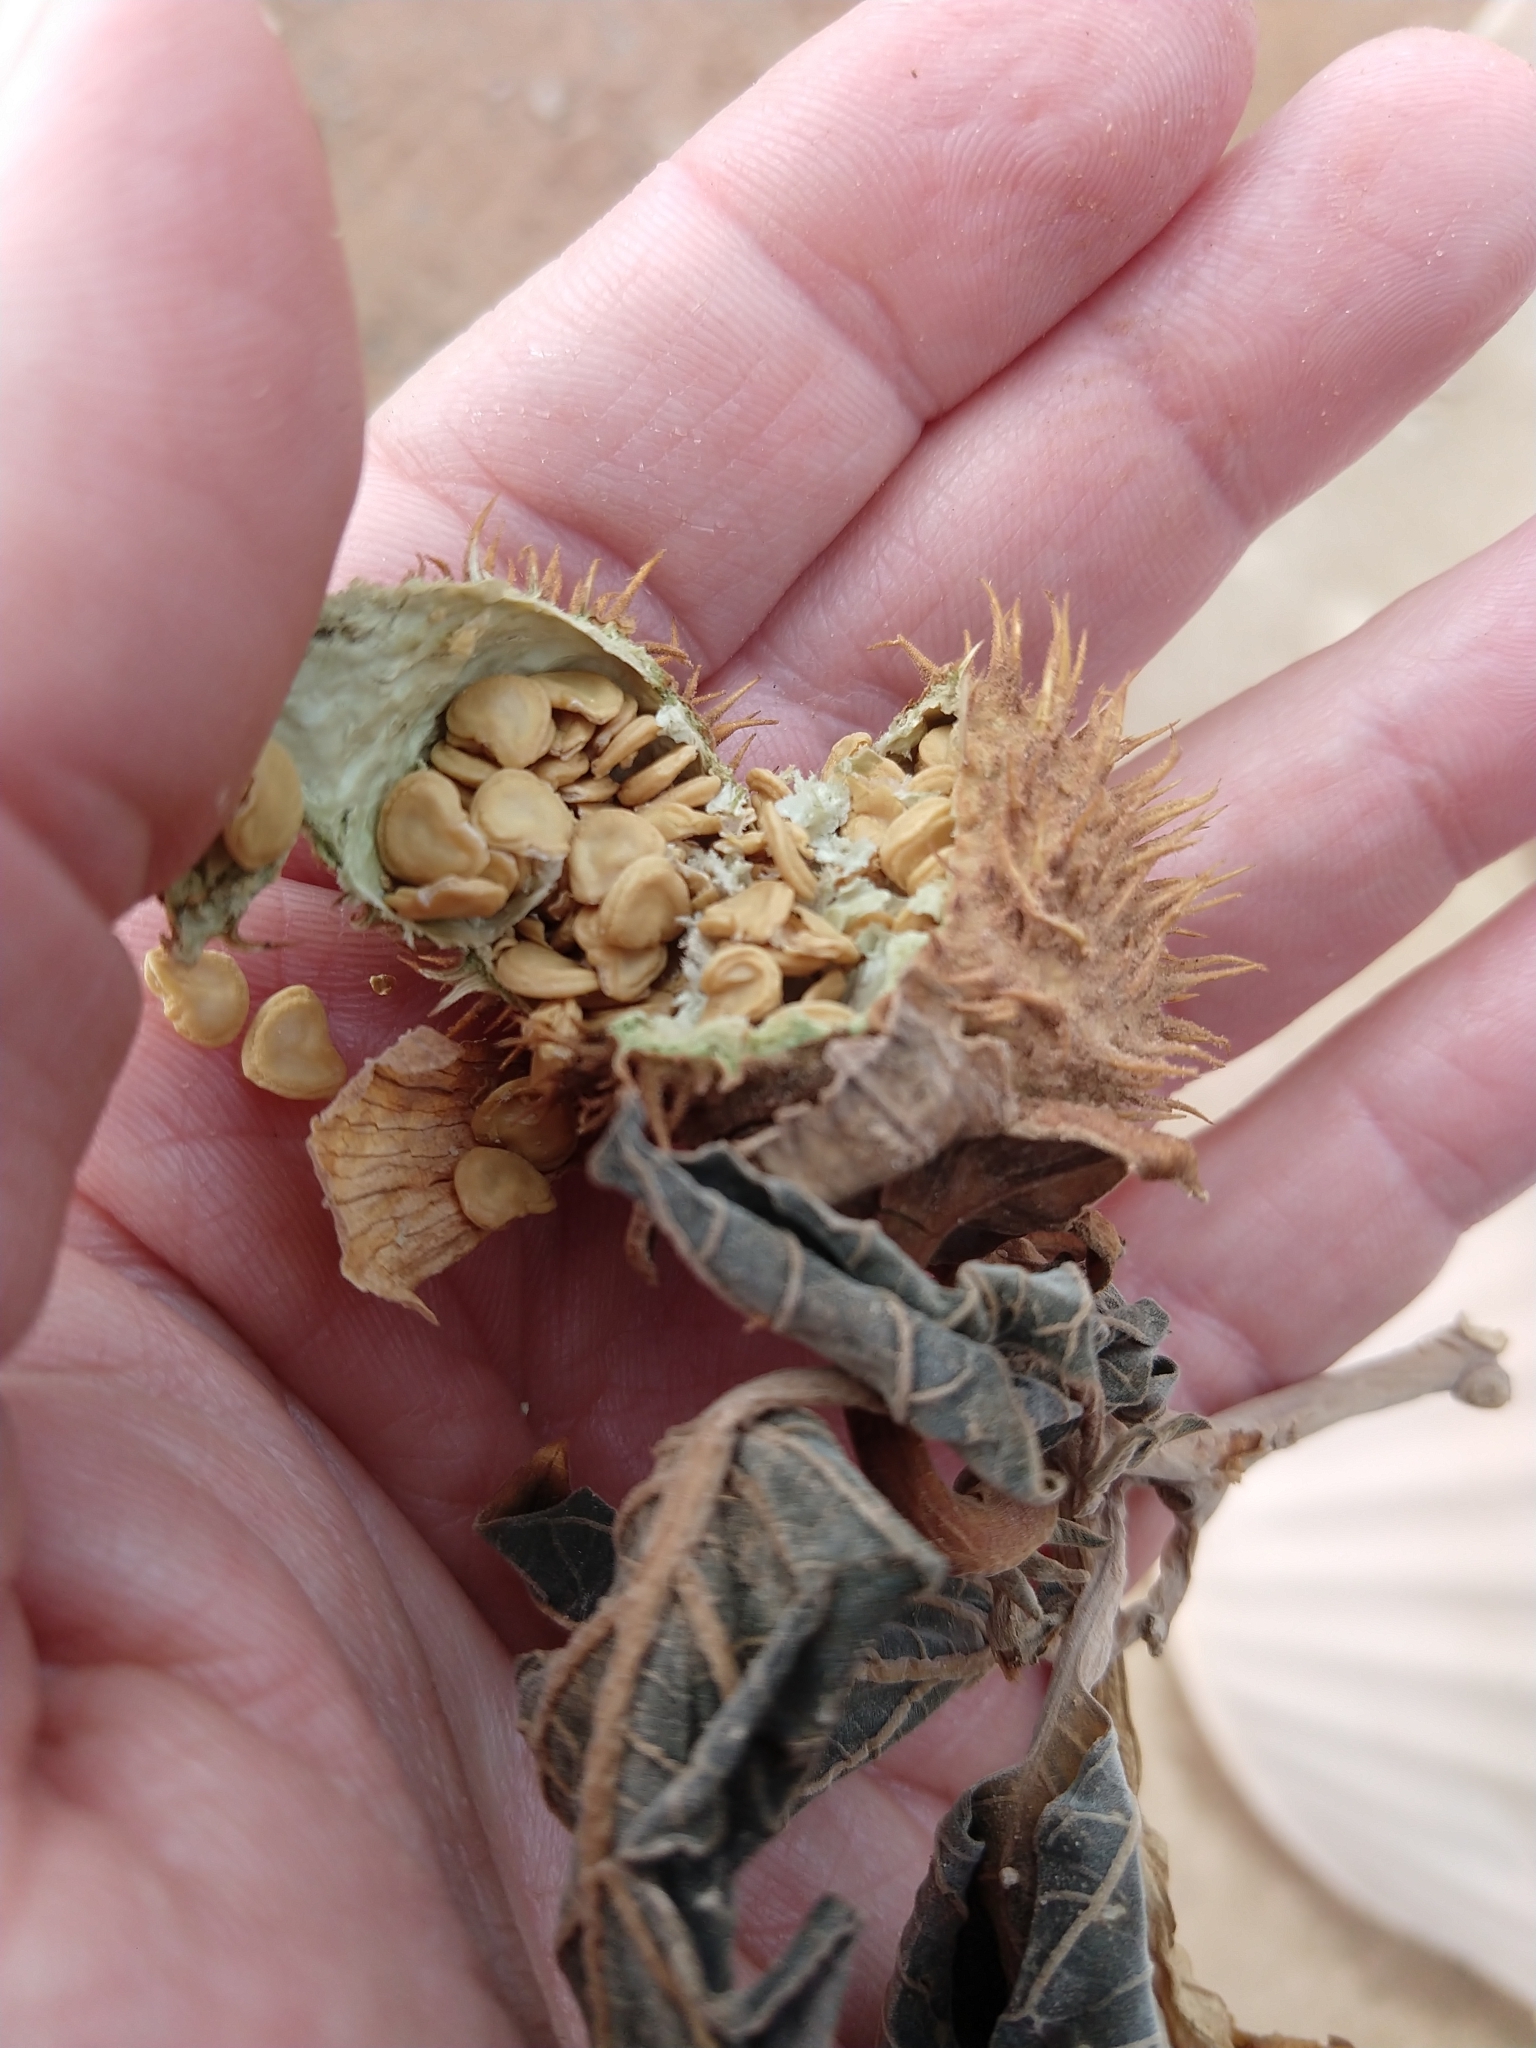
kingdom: Plantae
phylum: Tracheophyta
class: Magnoliopsida
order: Solanales
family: Solanaceae
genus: Datura
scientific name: Datura wrightii
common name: Sacred thorn-apple
